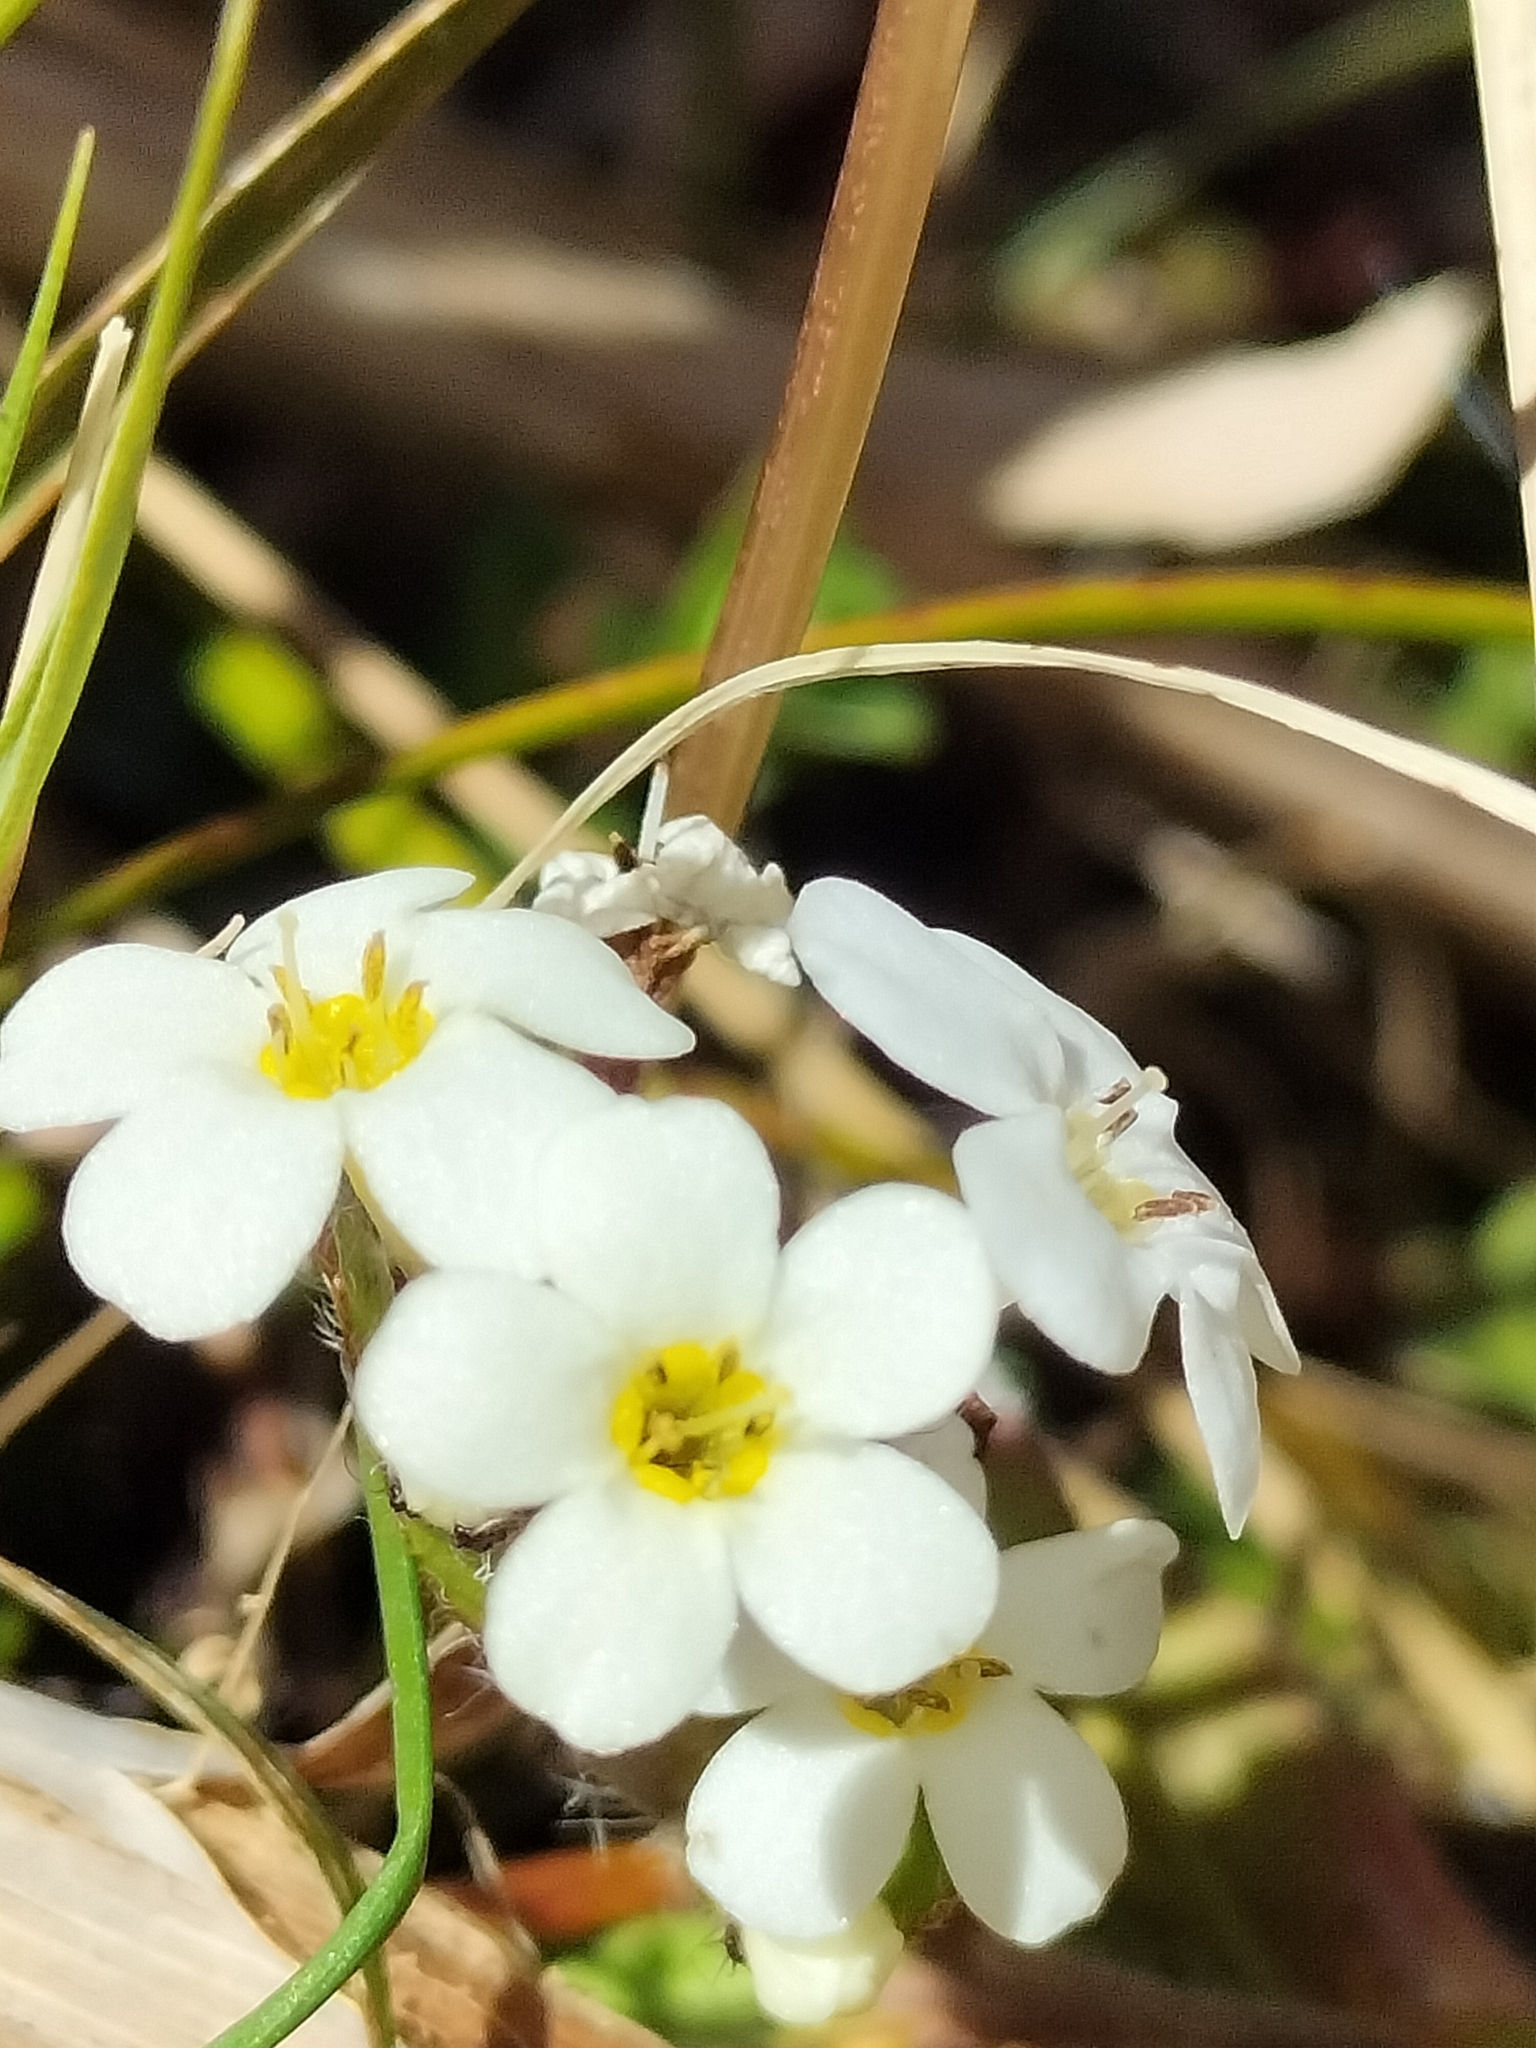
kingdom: Plantae
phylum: Tracheophyta
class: Magnoliopsida
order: Boraginales
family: Boraginaceae
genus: Myosotis
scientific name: Myosotis lyallii
